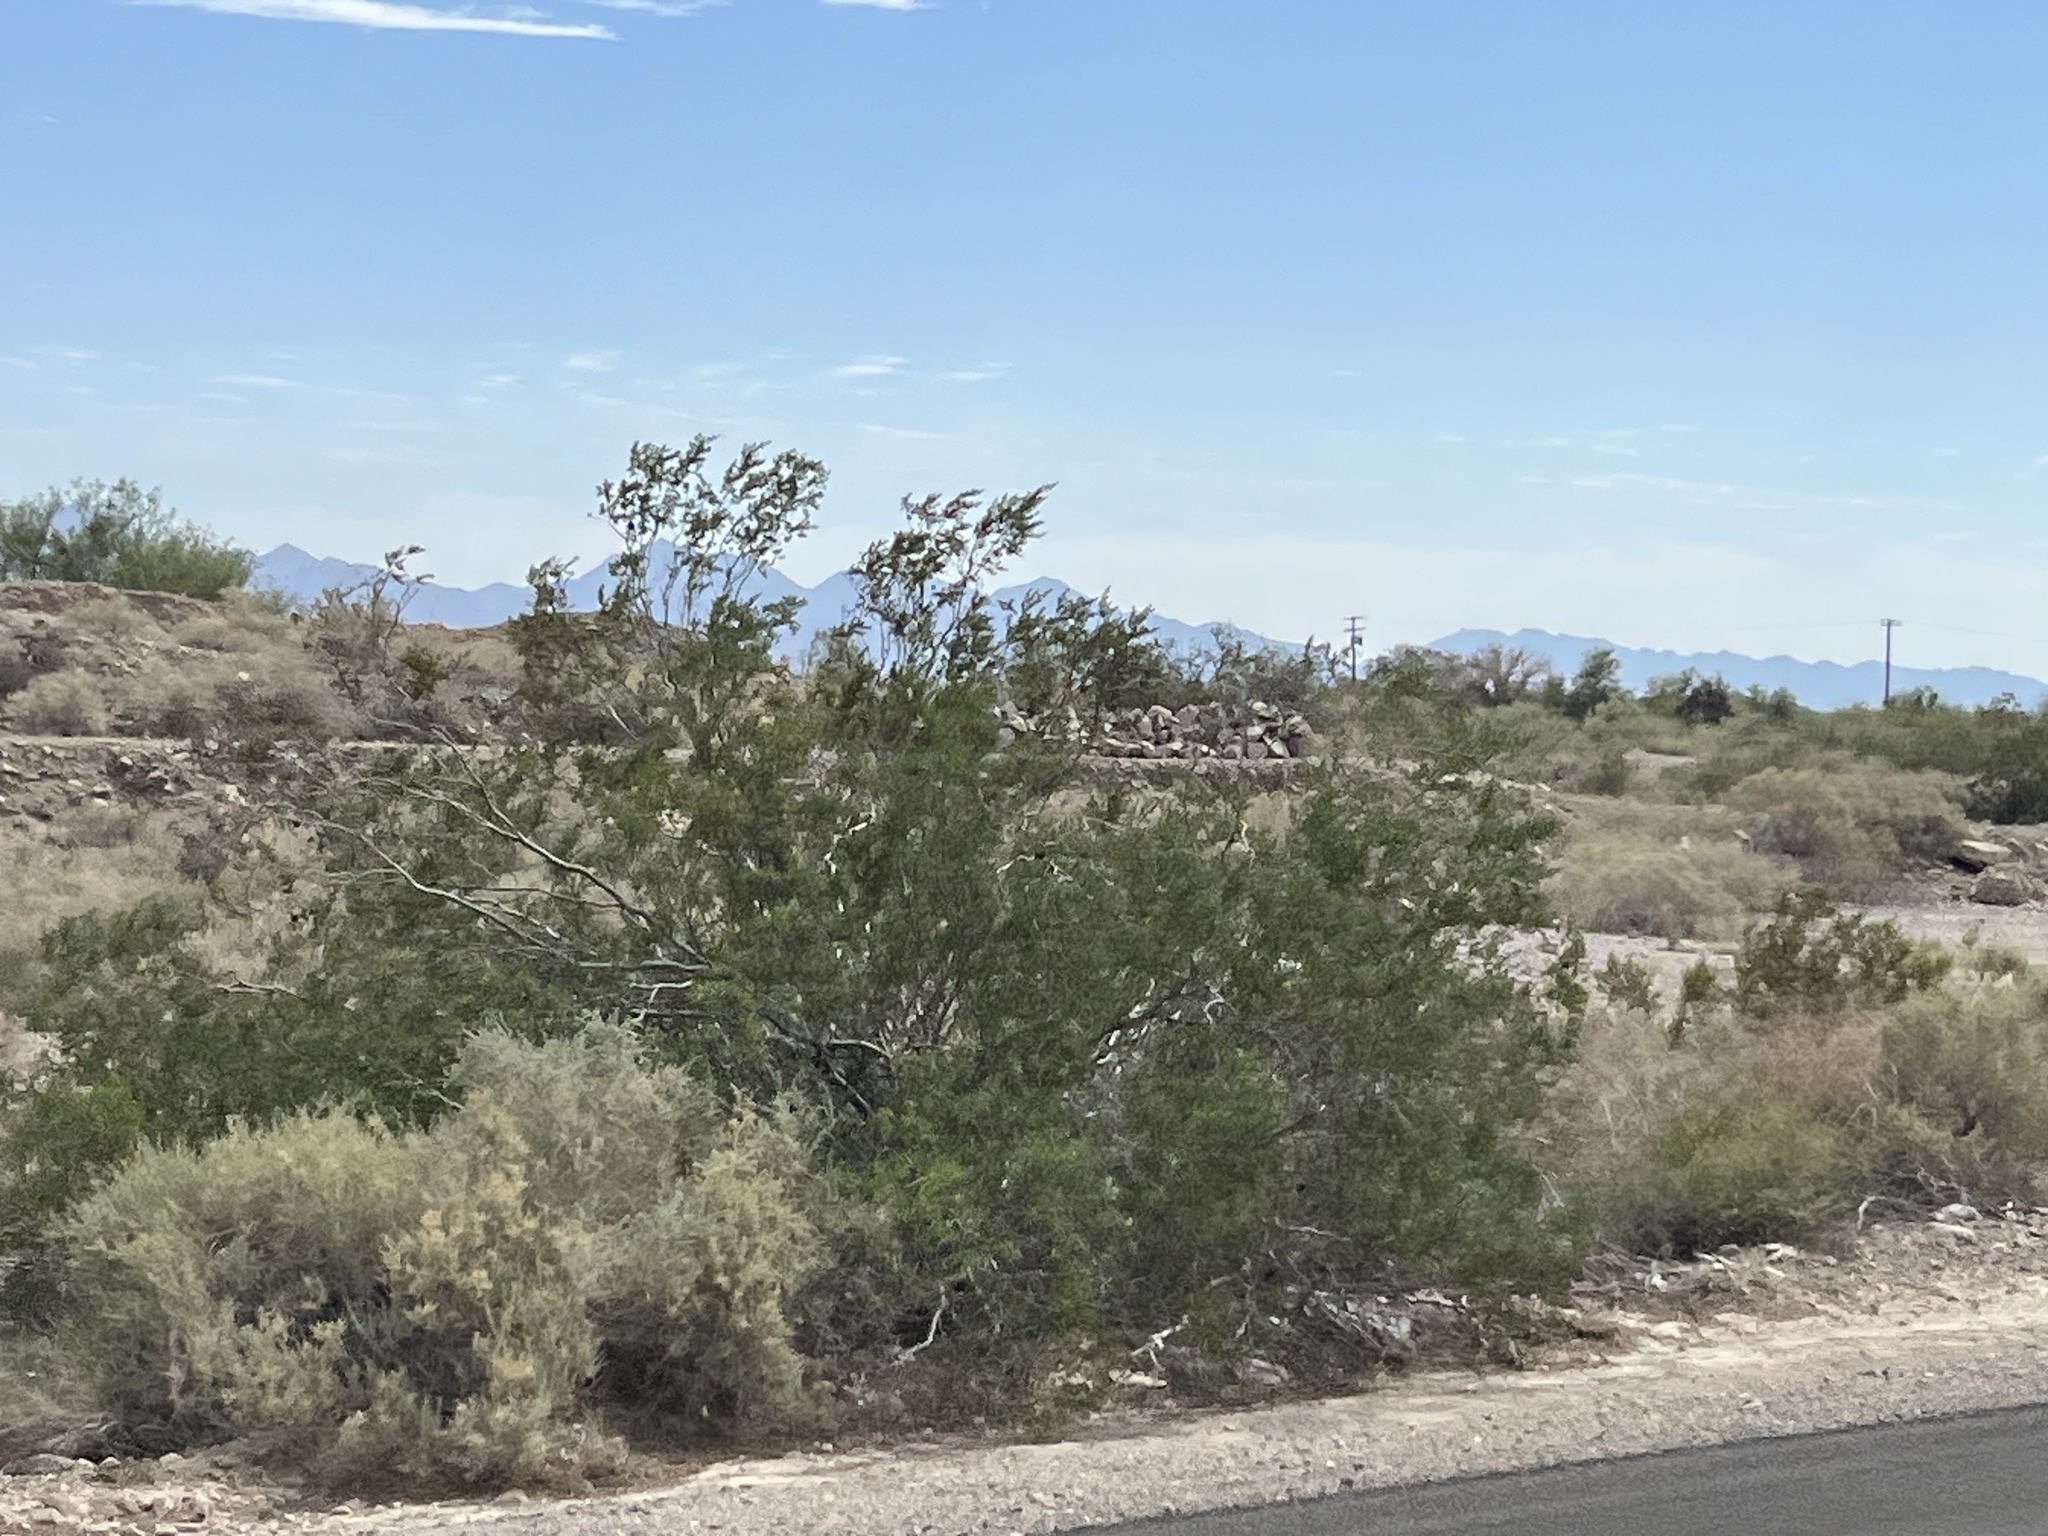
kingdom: Plantae
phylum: Tracheophyta
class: Magnoliopsida
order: Zygophyllales
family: Zygophyllaceae
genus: Larrea
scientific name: Larrea tridentata
